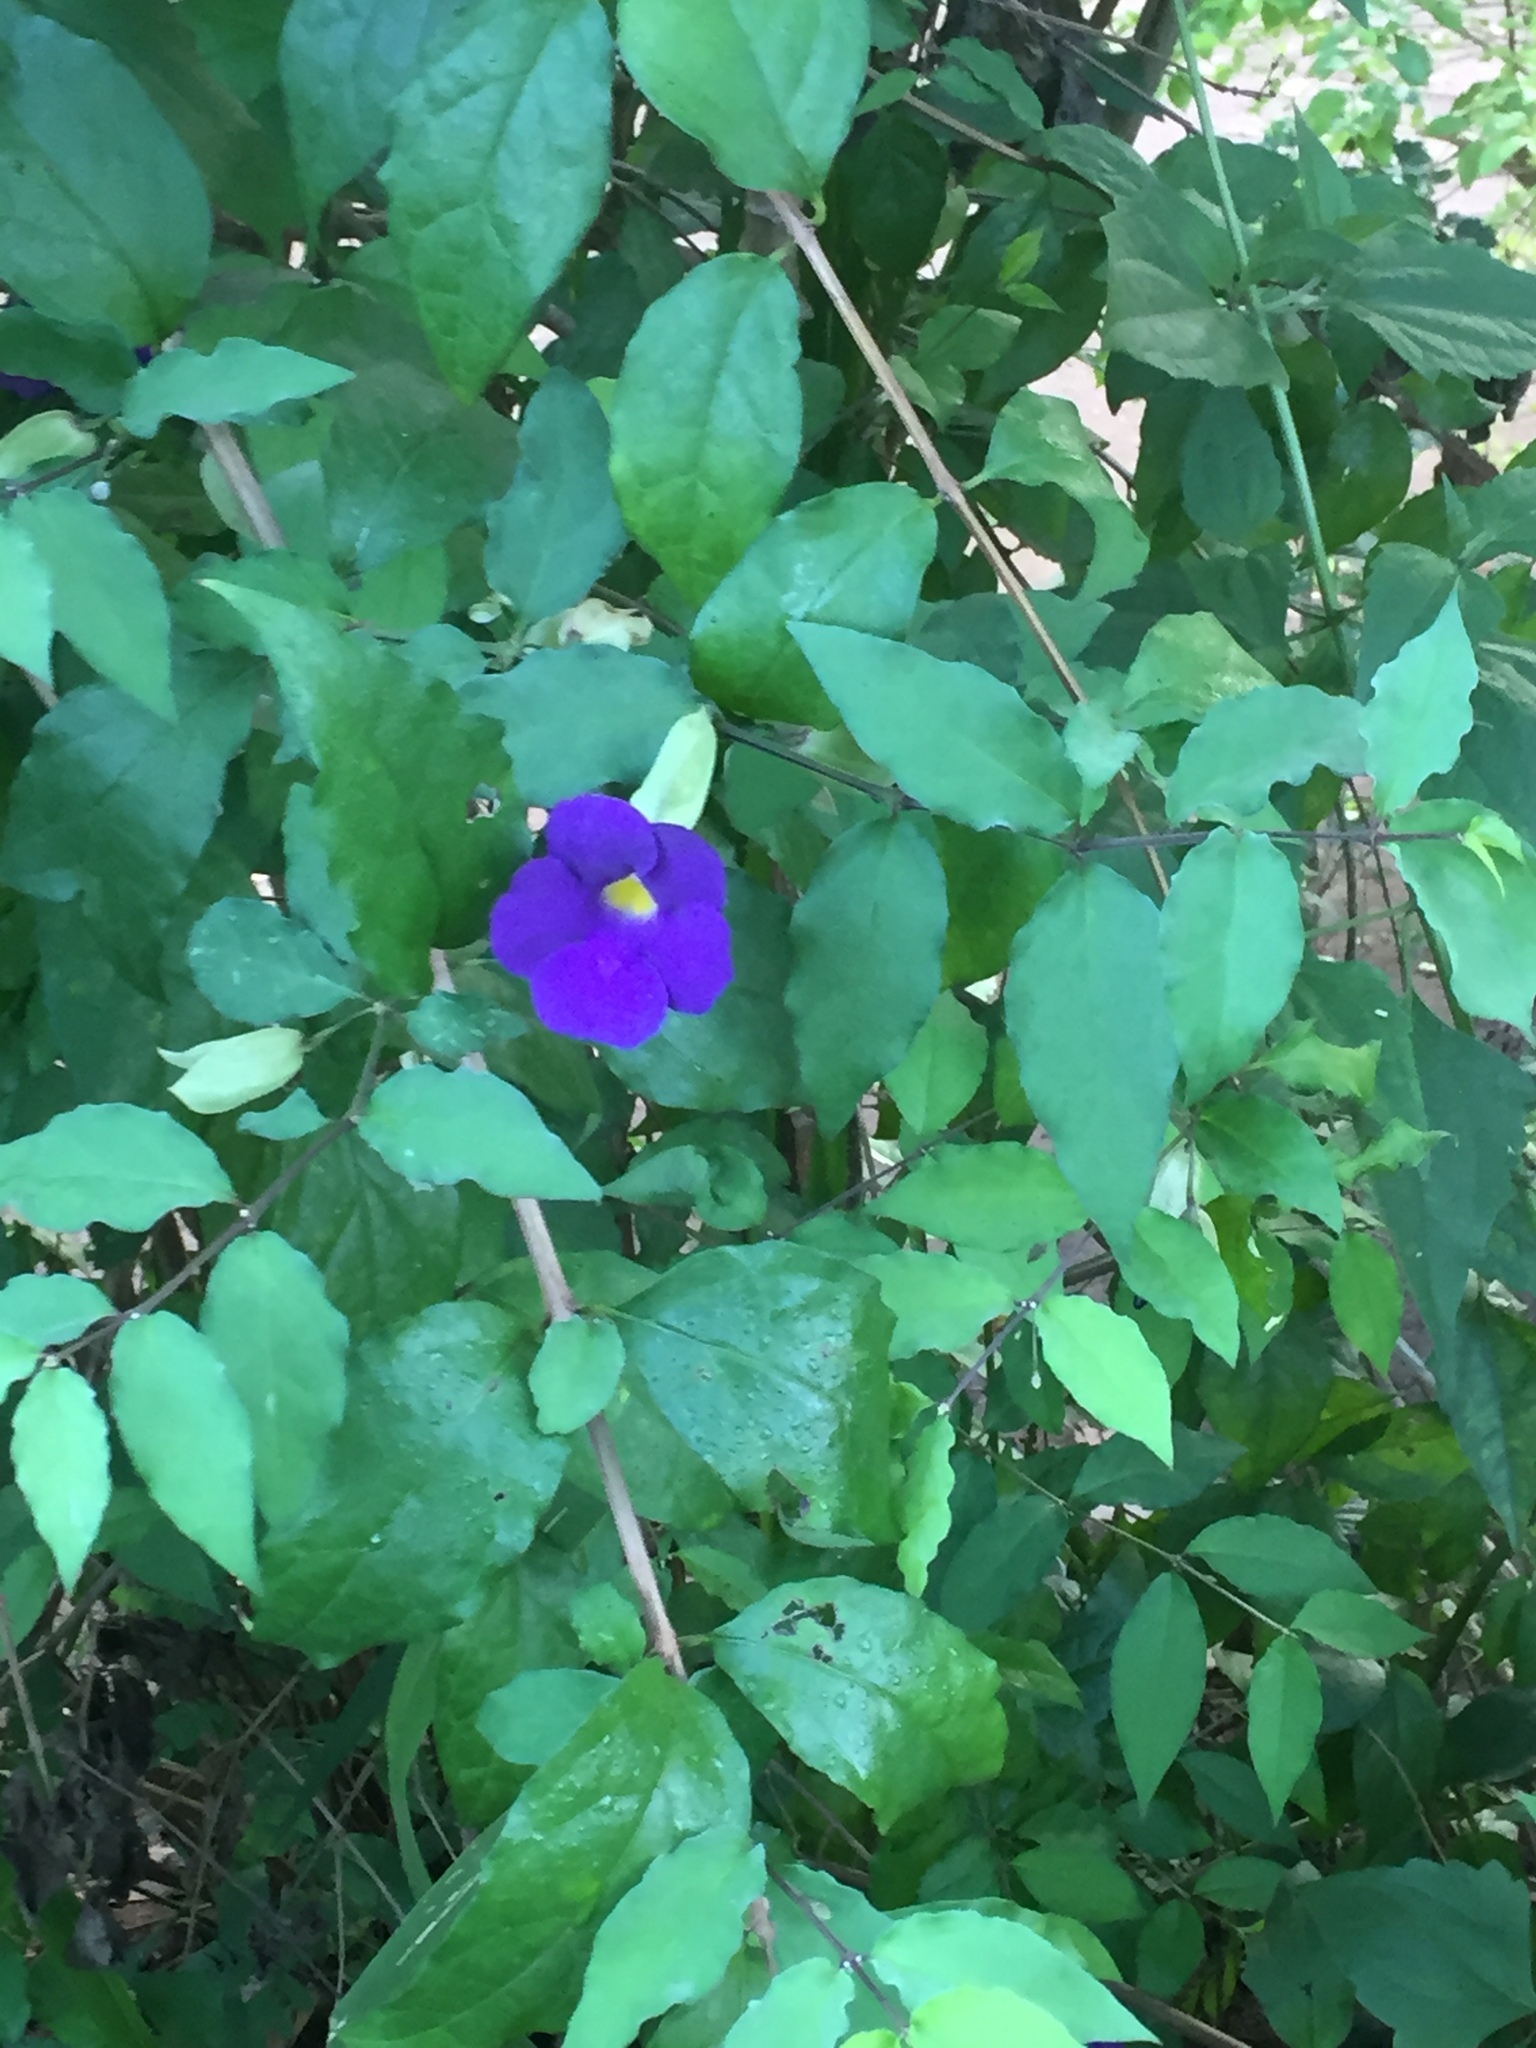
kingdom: Plantae
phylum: Tracheophyta
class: Magnoliopsida
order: Lamiales
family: Acanthaceae
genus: Thunbergia
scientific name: Thunbergia erecta
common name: Bush clockvine
